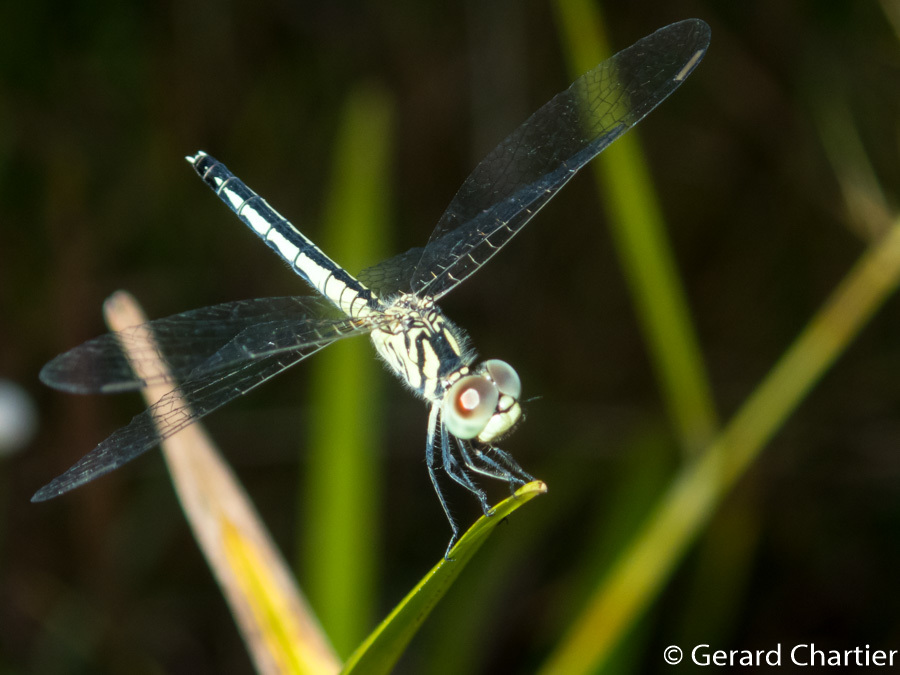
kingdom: Animalia
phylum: Arthropoda
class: Insecta
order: Odonata
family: Libellulidae
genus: Diplacodes
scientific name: Diplacodes nebulosa
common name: Black-tipped percher
